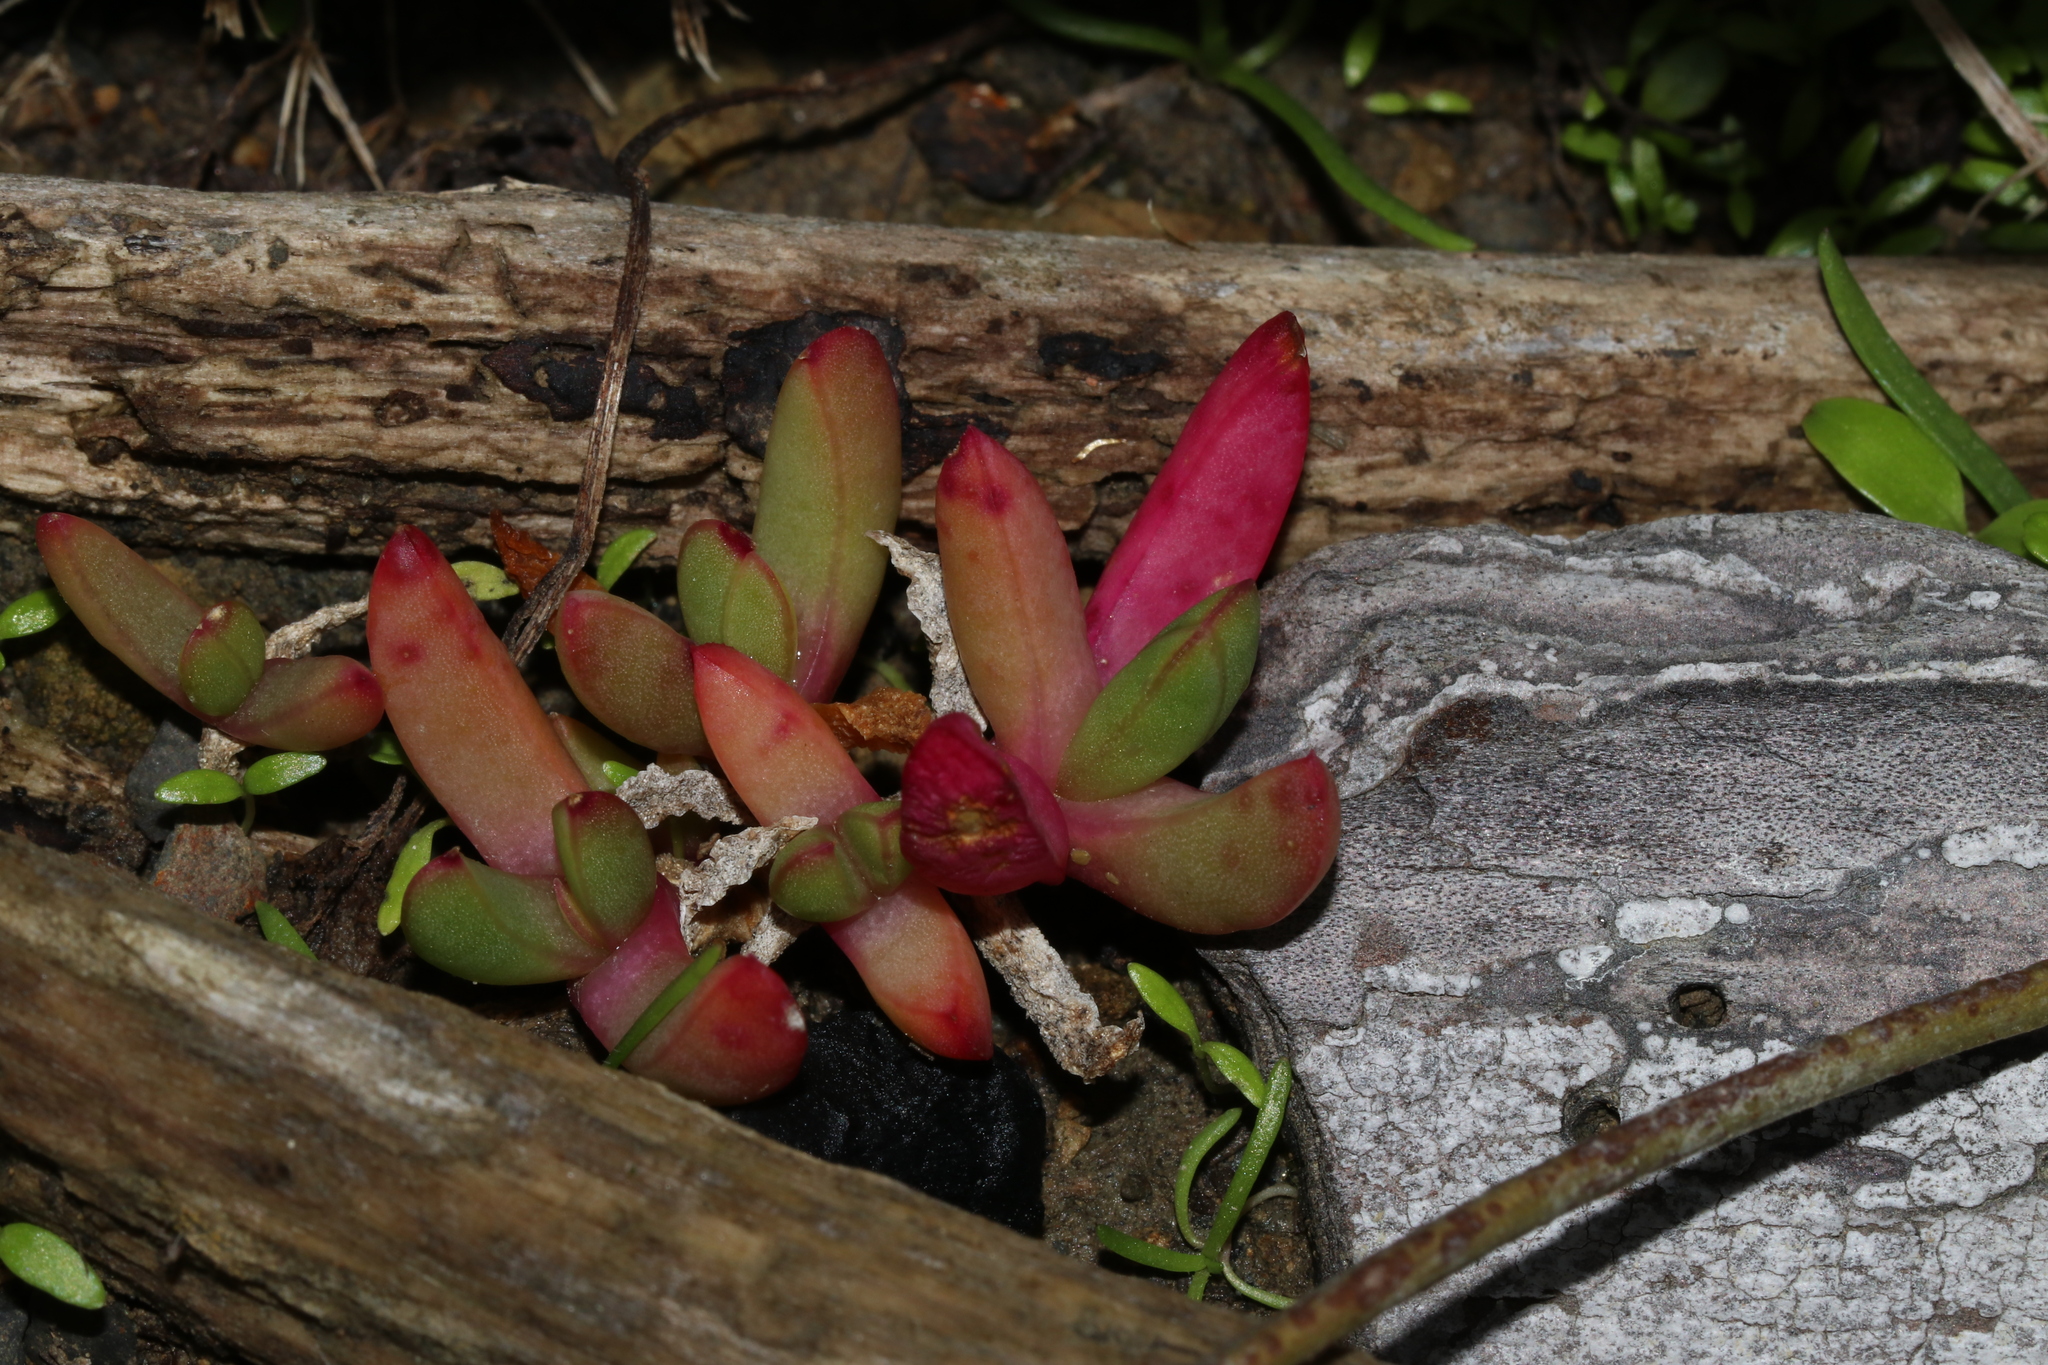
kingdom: Plantae
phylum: Tracheophyta
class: Magnoliopsida
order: Caryophyllales
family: Aizoaceae
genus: Disphyma
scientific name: Disphyma australe
